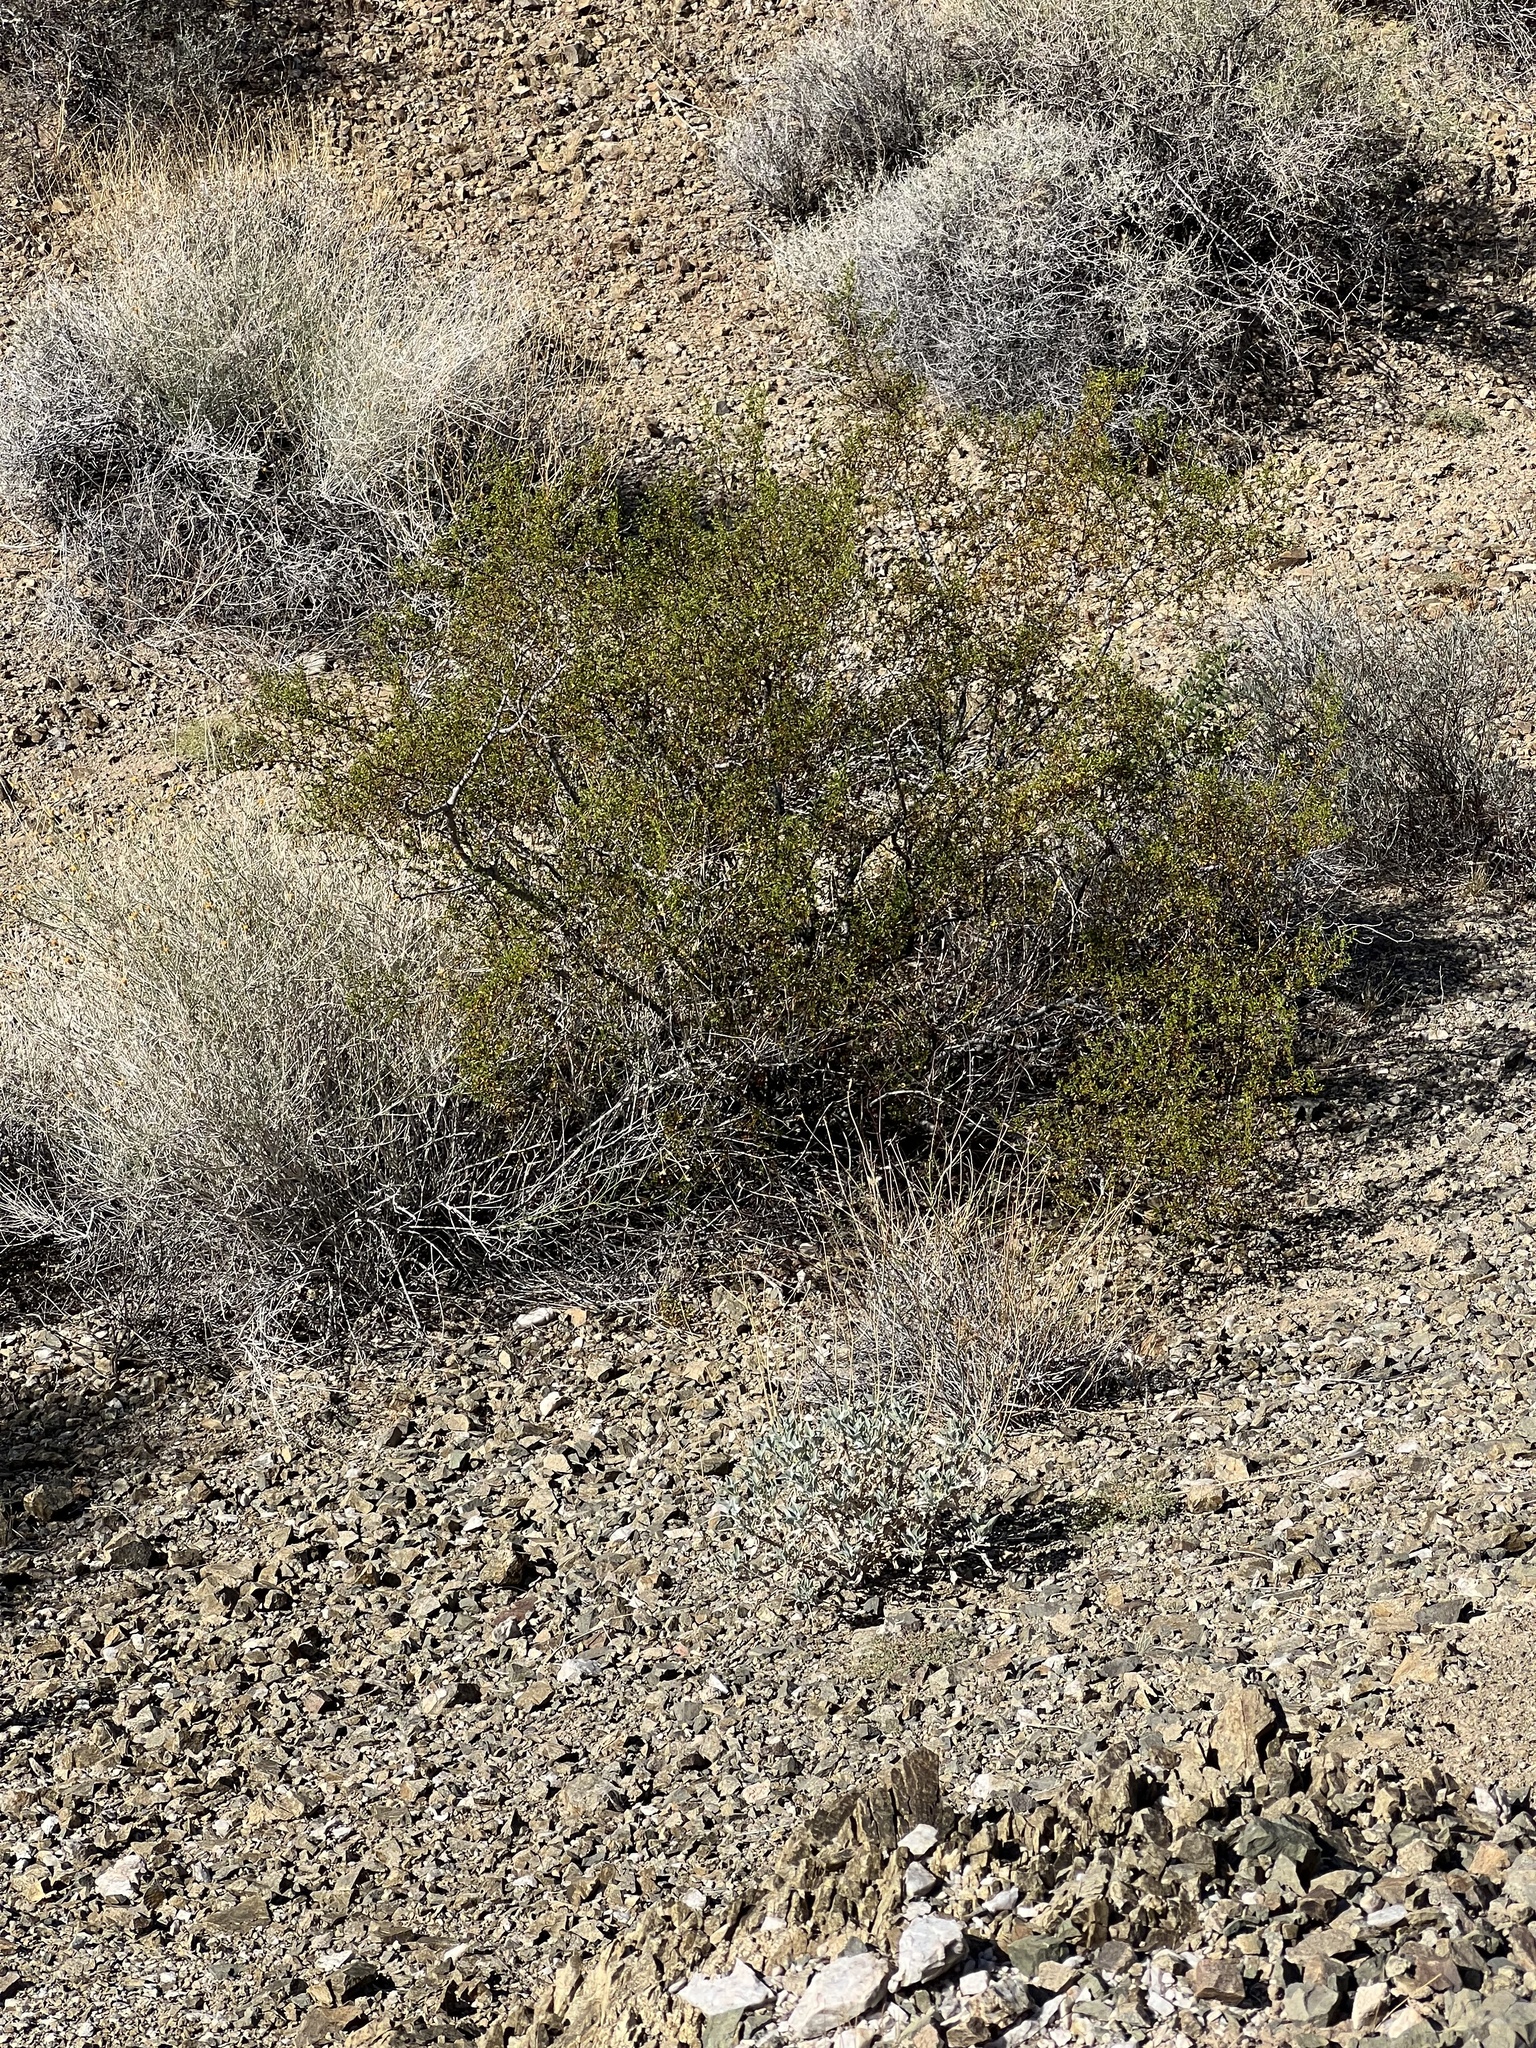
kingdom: Plantae
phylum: Tracheophyta
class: Magnoliopsida
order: Zygophyllales
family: Zygophyllaceae
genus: Larrea
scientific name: Larrea tridentata
